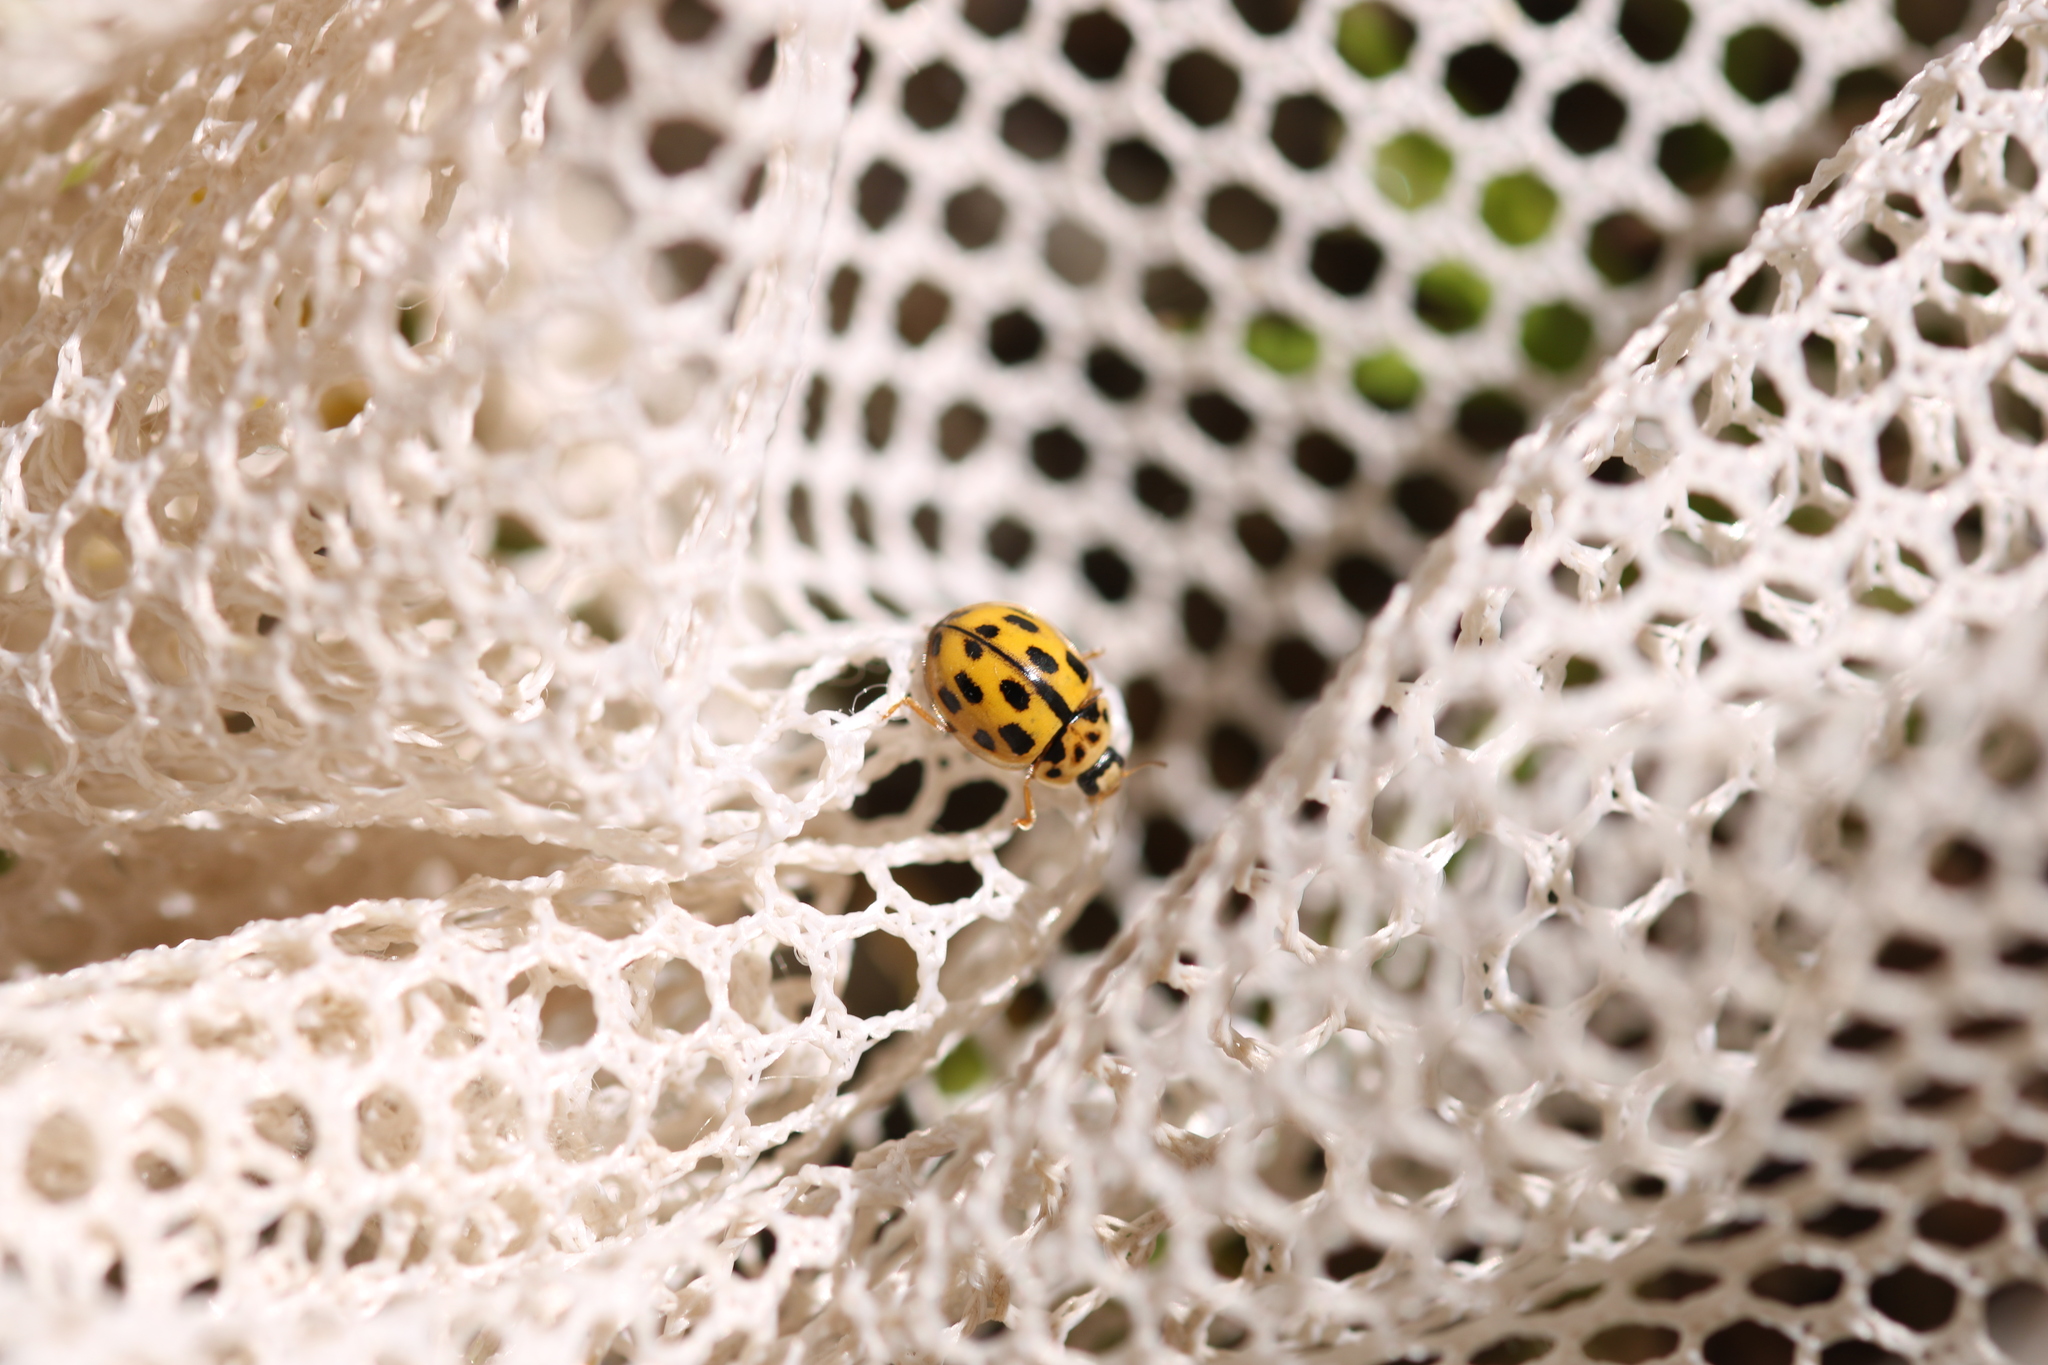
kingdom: Animalia
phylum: Arthropoda
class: Insecta
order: Coleoptera
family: Coccinellidae
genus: Propylaea
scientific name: Propylaea quatuordecimpunctata
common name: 14-spotted ladybird beetle
